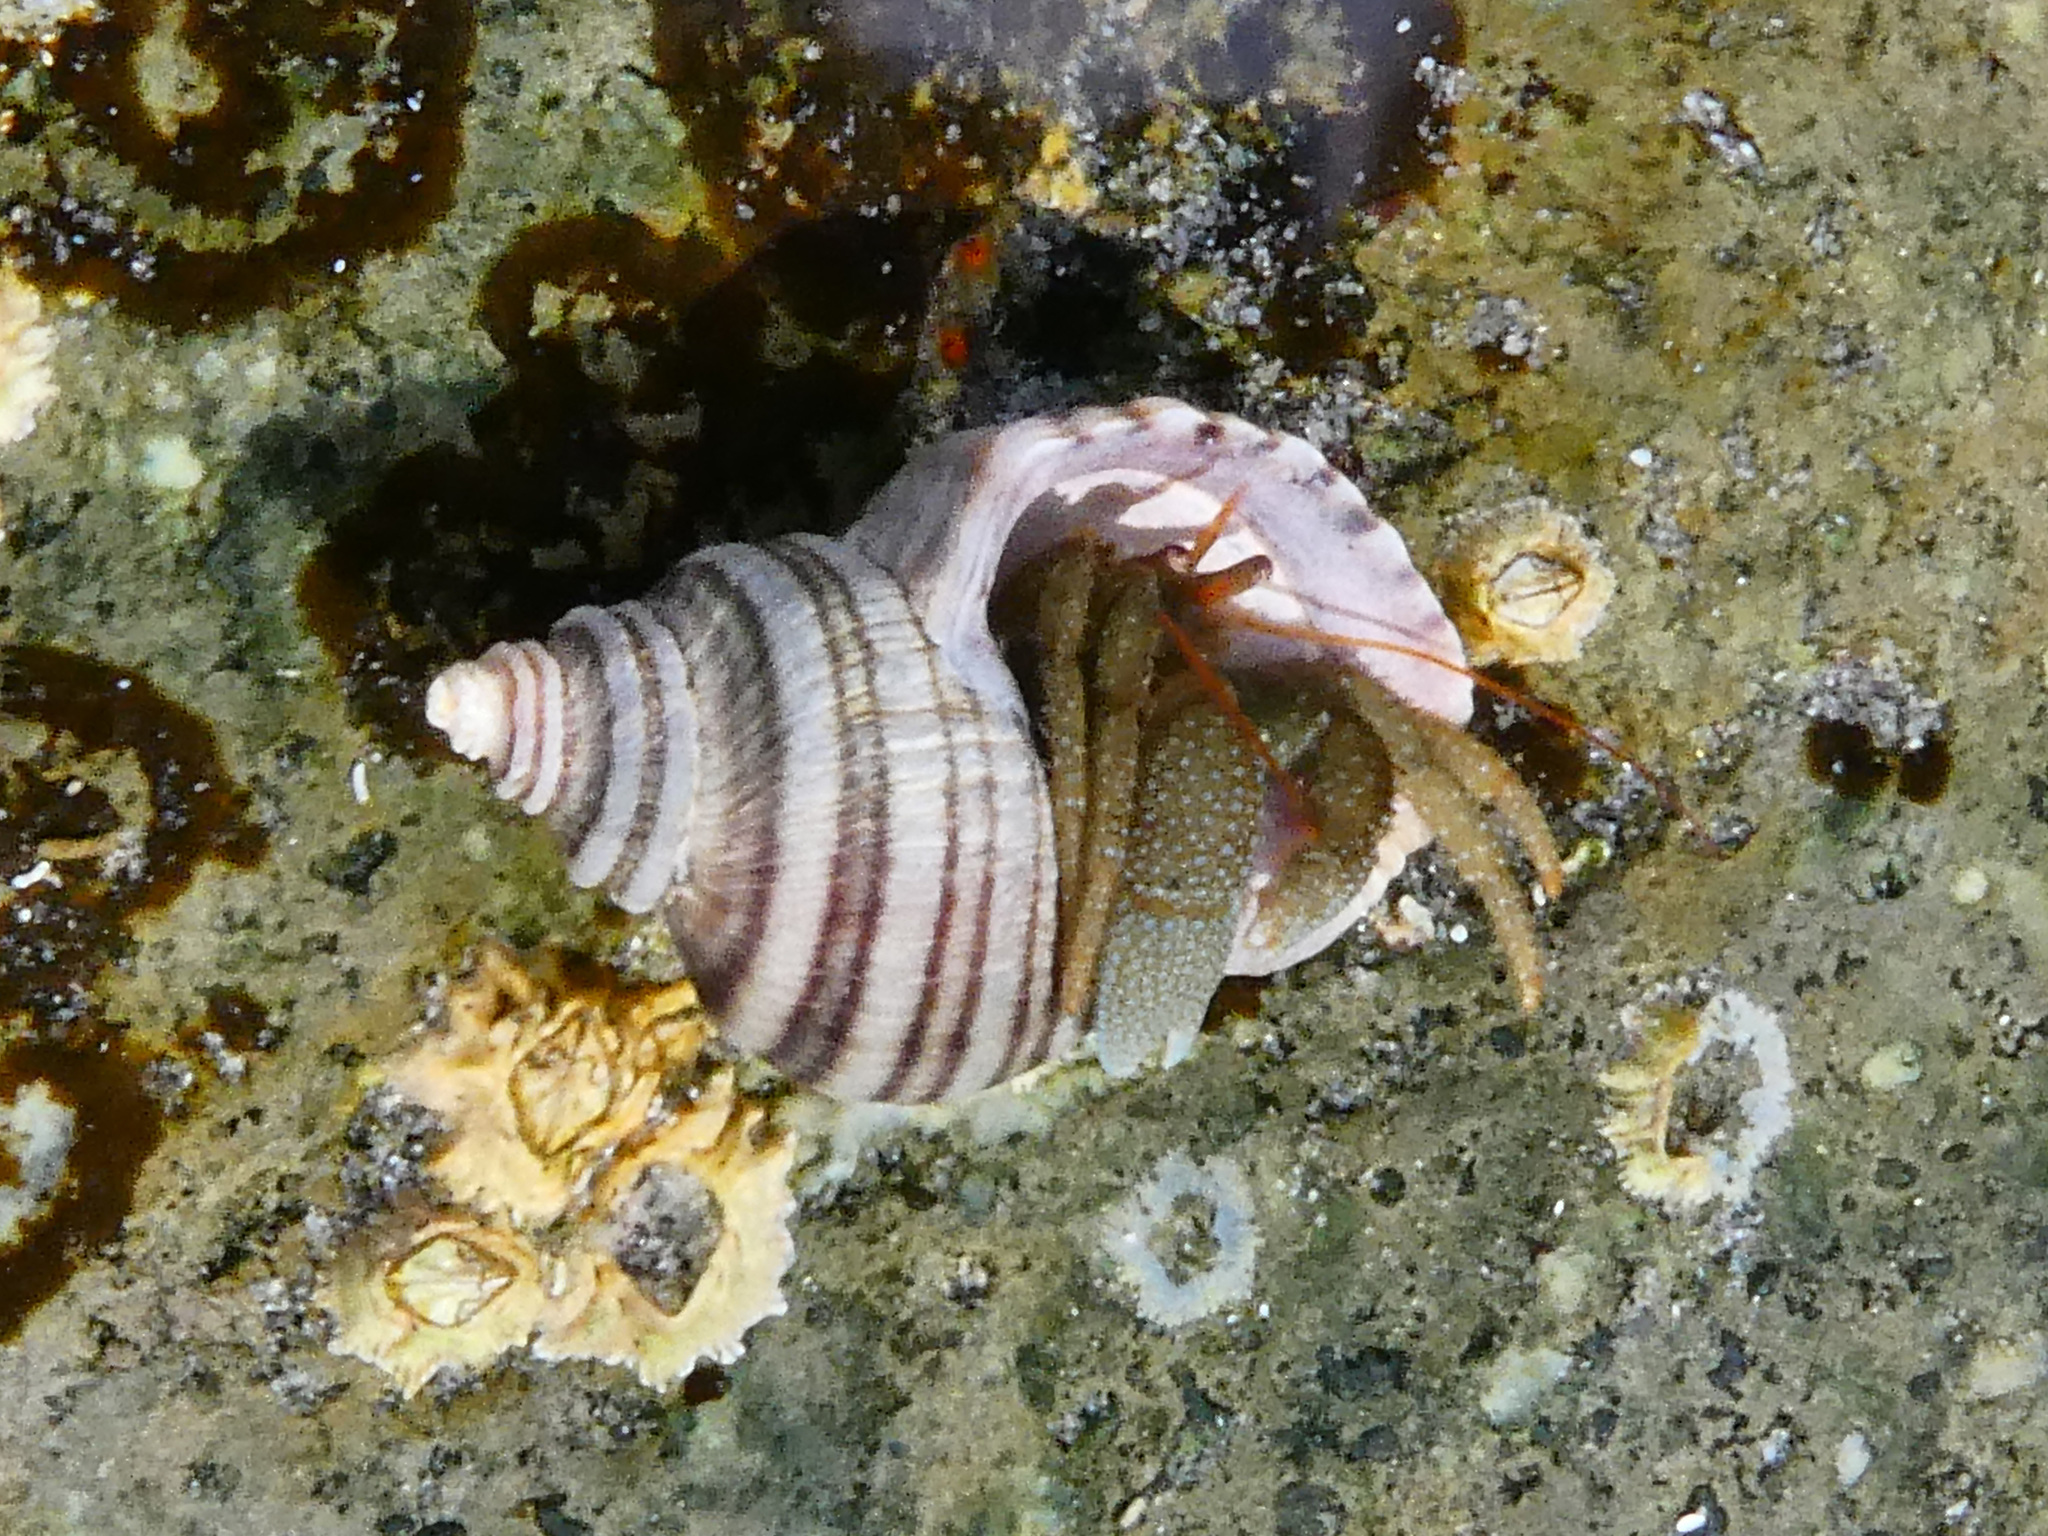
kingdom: Animalia
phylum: Arthropoda
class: Malacostraca
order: Decapoda
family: Paguridae
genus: Pagurus
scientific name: Pagurus granosimanus
